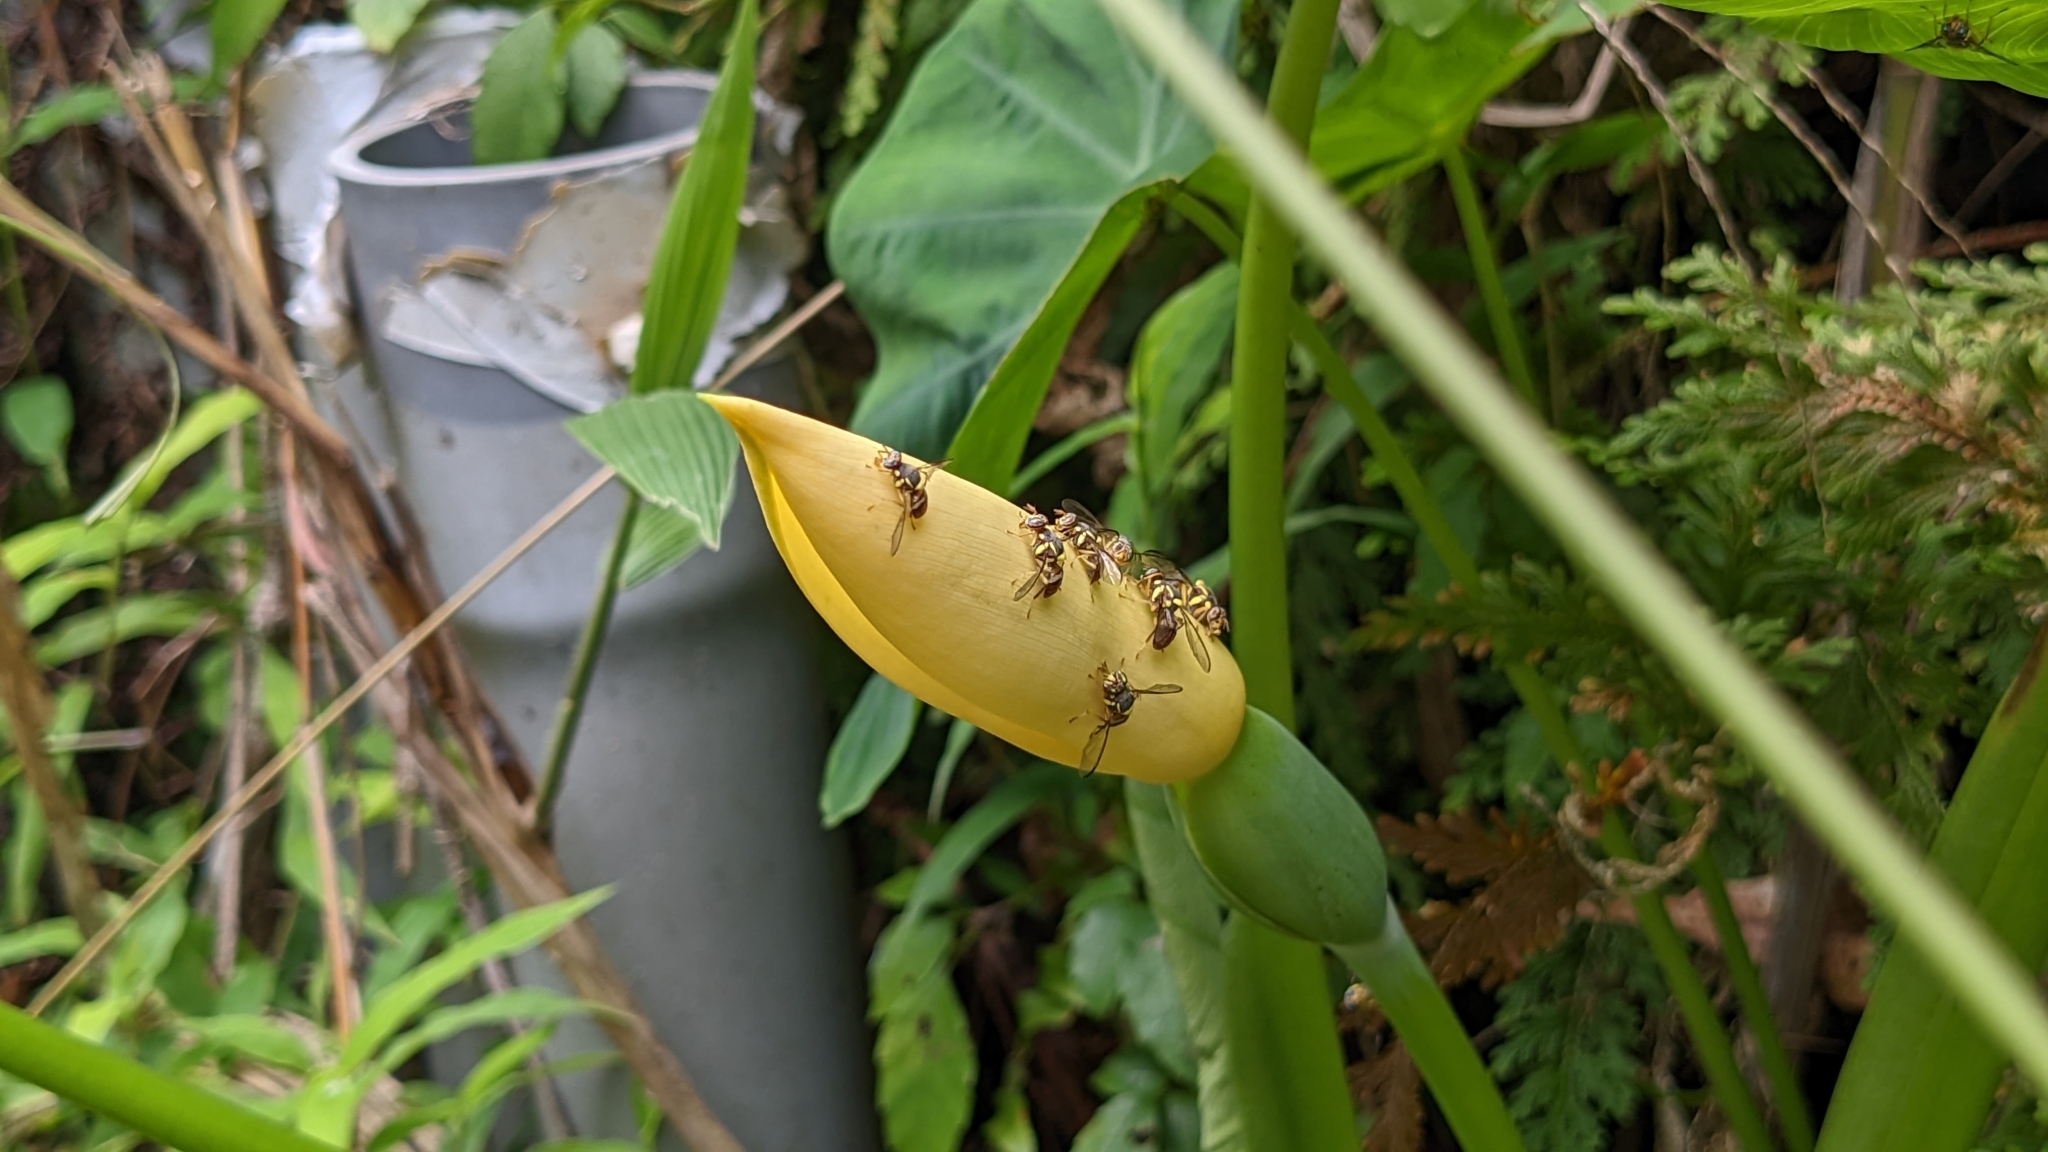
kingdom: Animalia
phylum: Arthropoda
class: Insecta
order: Diptera
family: Tephritidae
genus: Bactrocera
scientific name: Bactrocera dorsalis
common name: Oriental fruit fly
